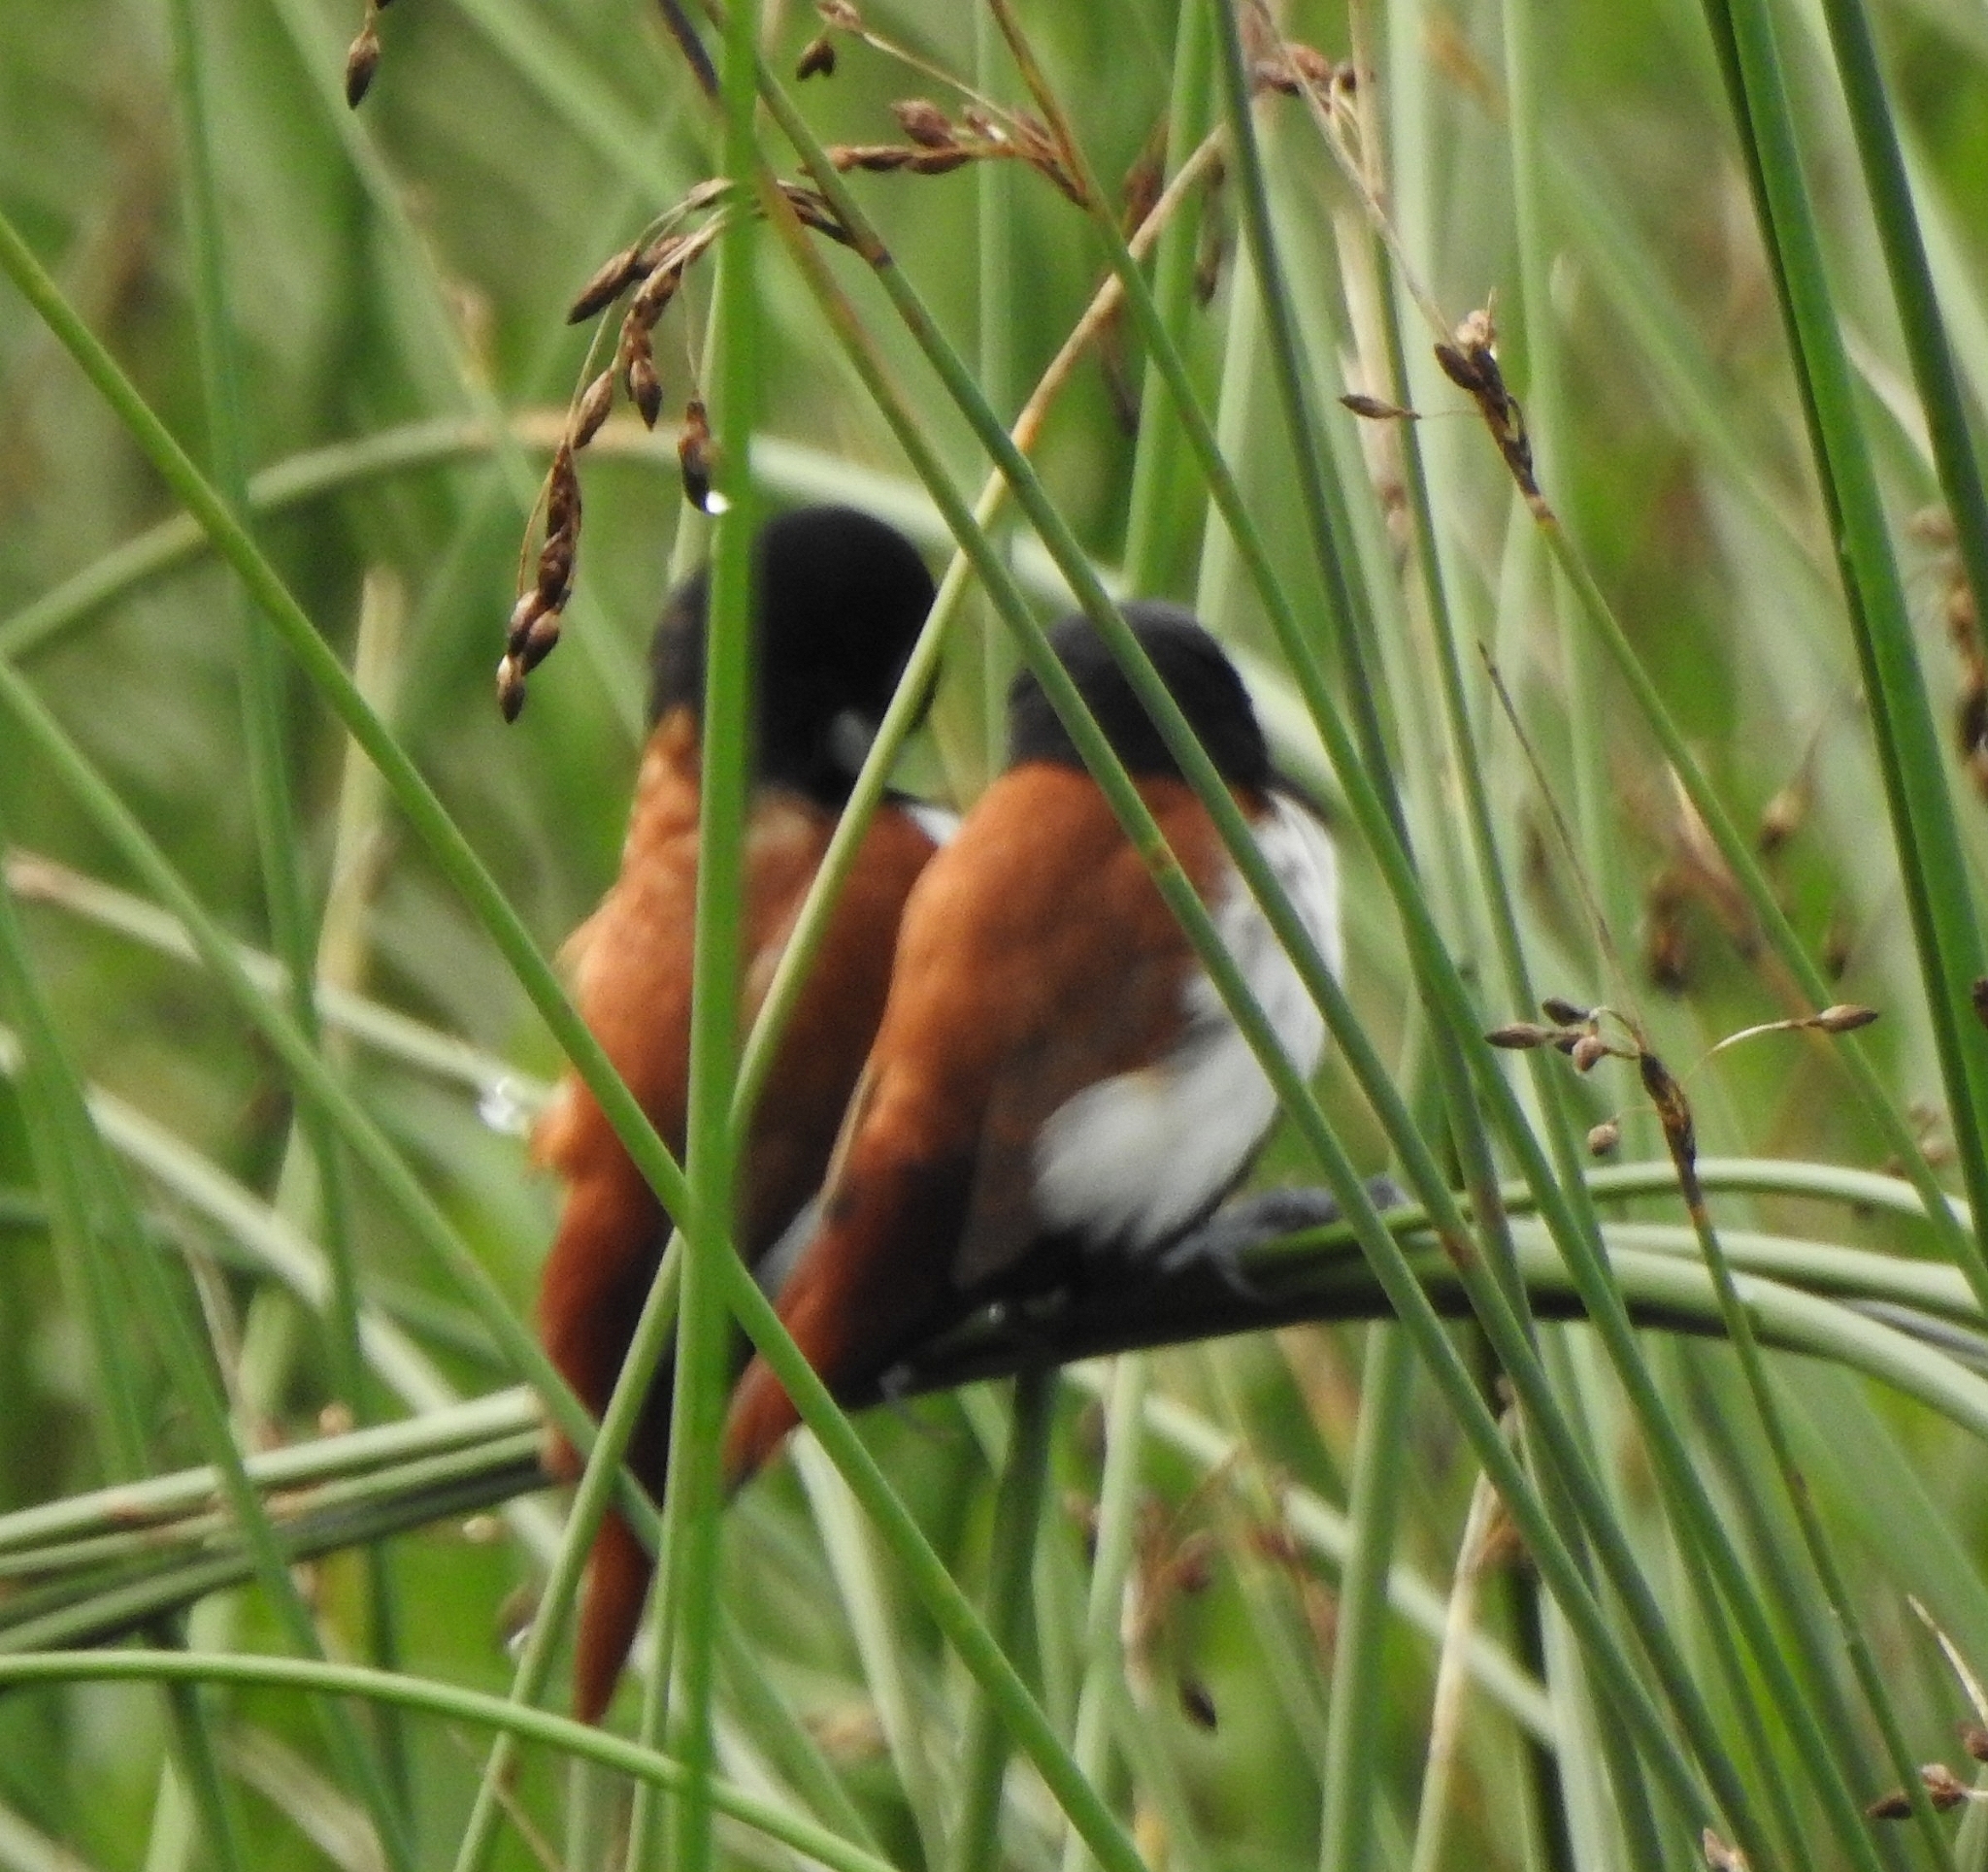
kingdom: Animalia
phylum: Chordata
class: Aves
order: Passeriformes
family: Estrildidae
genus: Lonchura
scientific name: Lonchura malacca
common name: Tricolored munia
